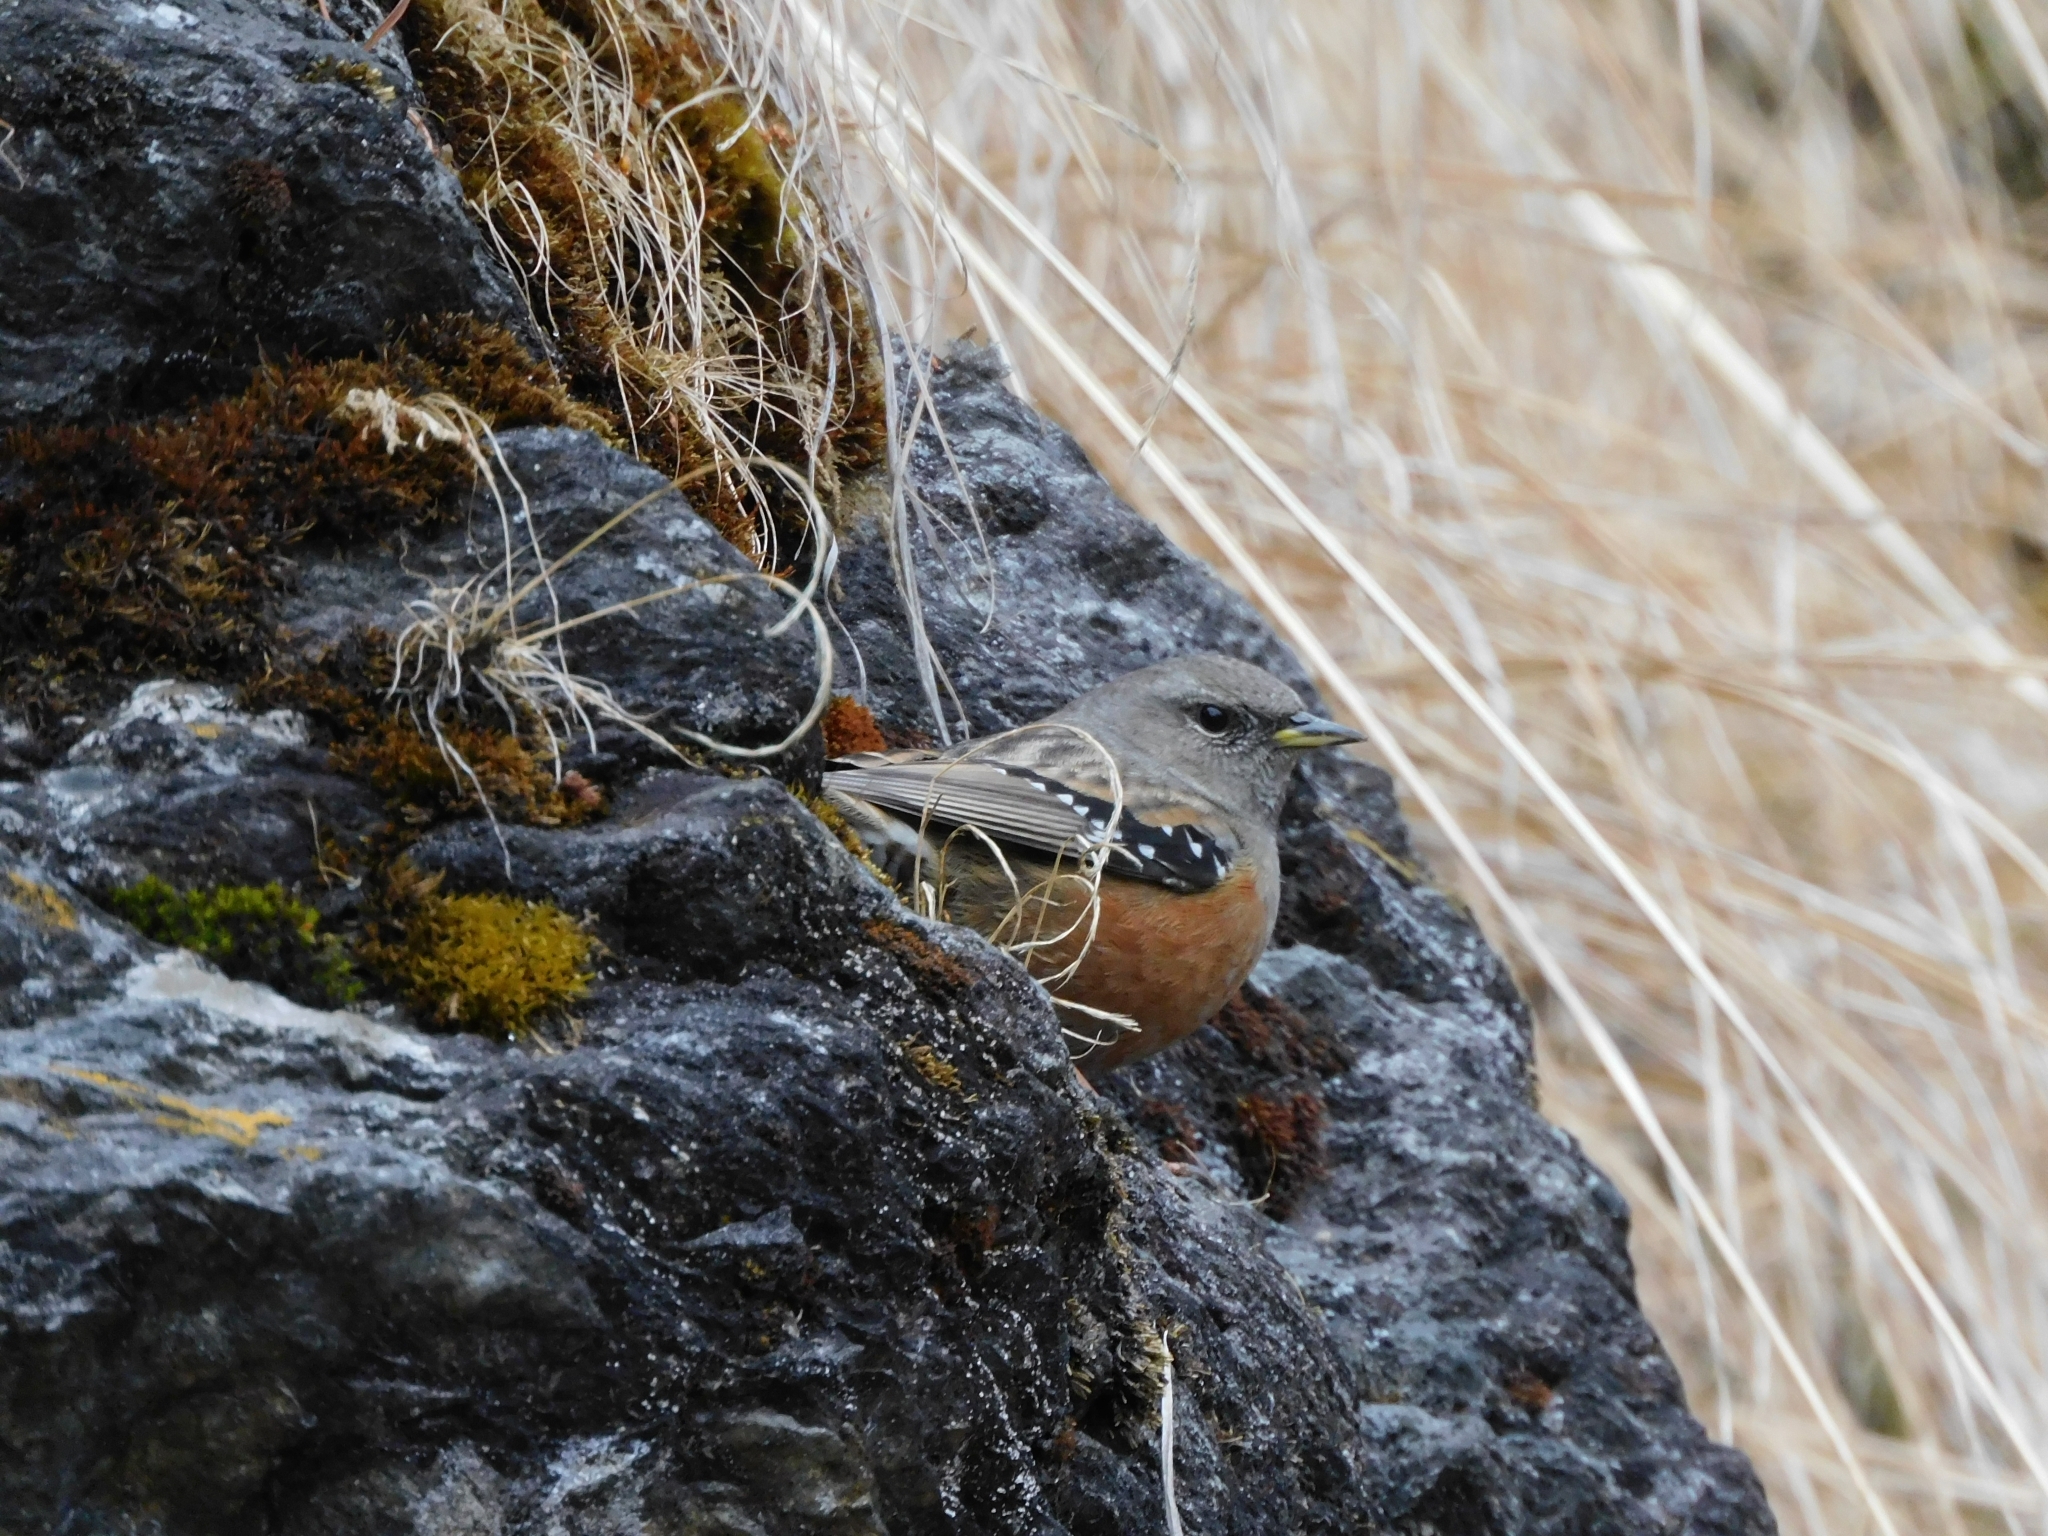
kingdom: Animalia
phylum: Chordata
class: Aves
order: Passeriformes
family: Prunellidae
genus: Prunella
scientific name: Prunella collaris
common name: Alpine accentor
